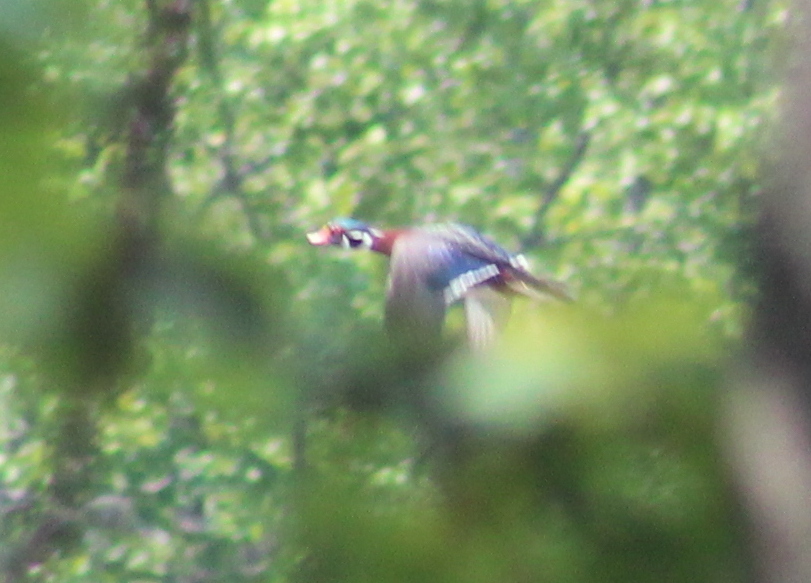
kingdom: Animalia
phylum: Chordata
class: Aves
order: Anseriformes
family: Anatidae
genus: Aix
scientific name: Aix sponsa
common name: Wood duck
